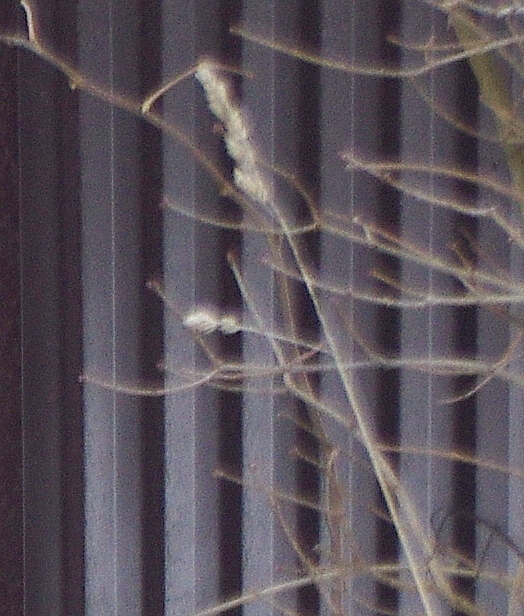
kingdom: Plantae
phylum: Tracheophyta
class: Liliopsida
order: Poales
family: Poaceae
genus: Dactylis
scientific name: Dactylis glomerata
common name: Orchardgrass
